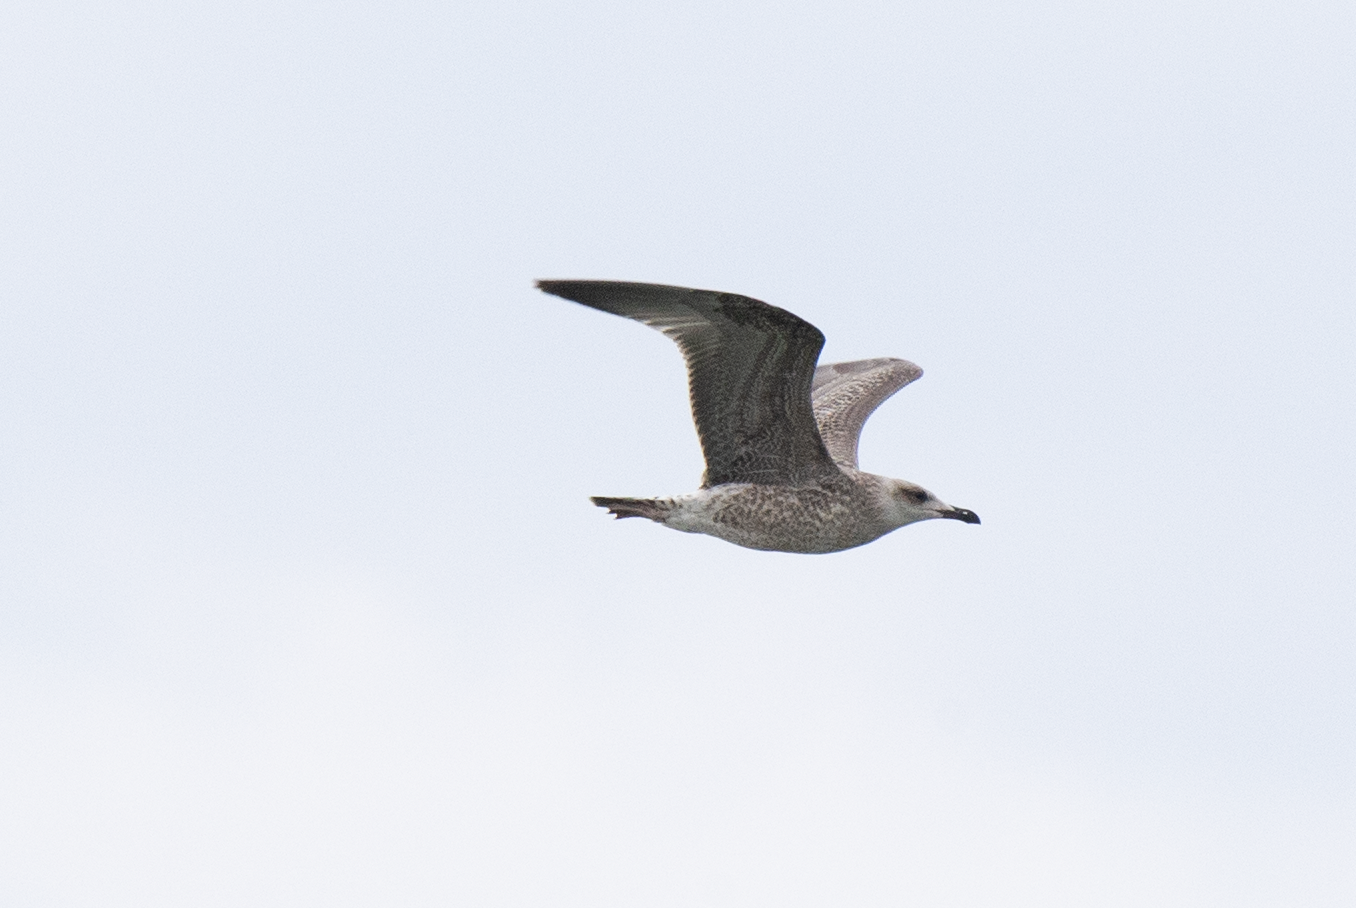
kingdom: Animalia
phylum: Chordata
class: Aves
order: Charadriiformes
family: Laridae
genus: Larus
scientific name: Larus michahellis
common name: Yellow-legged gull
